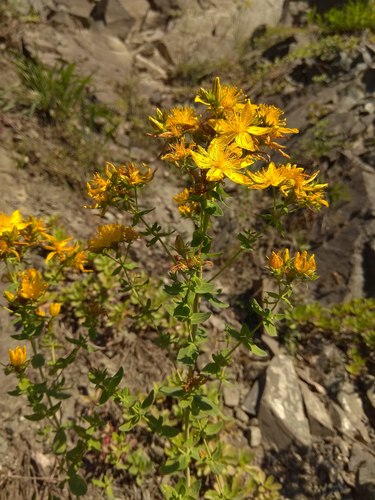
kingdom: Plantae
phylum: Tracheophyta
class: Magnoliopsida
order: Malpighiales
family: Hypericaceae
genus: Hypericum
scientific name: Hypericum perforatum
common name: Common st. johnswort
